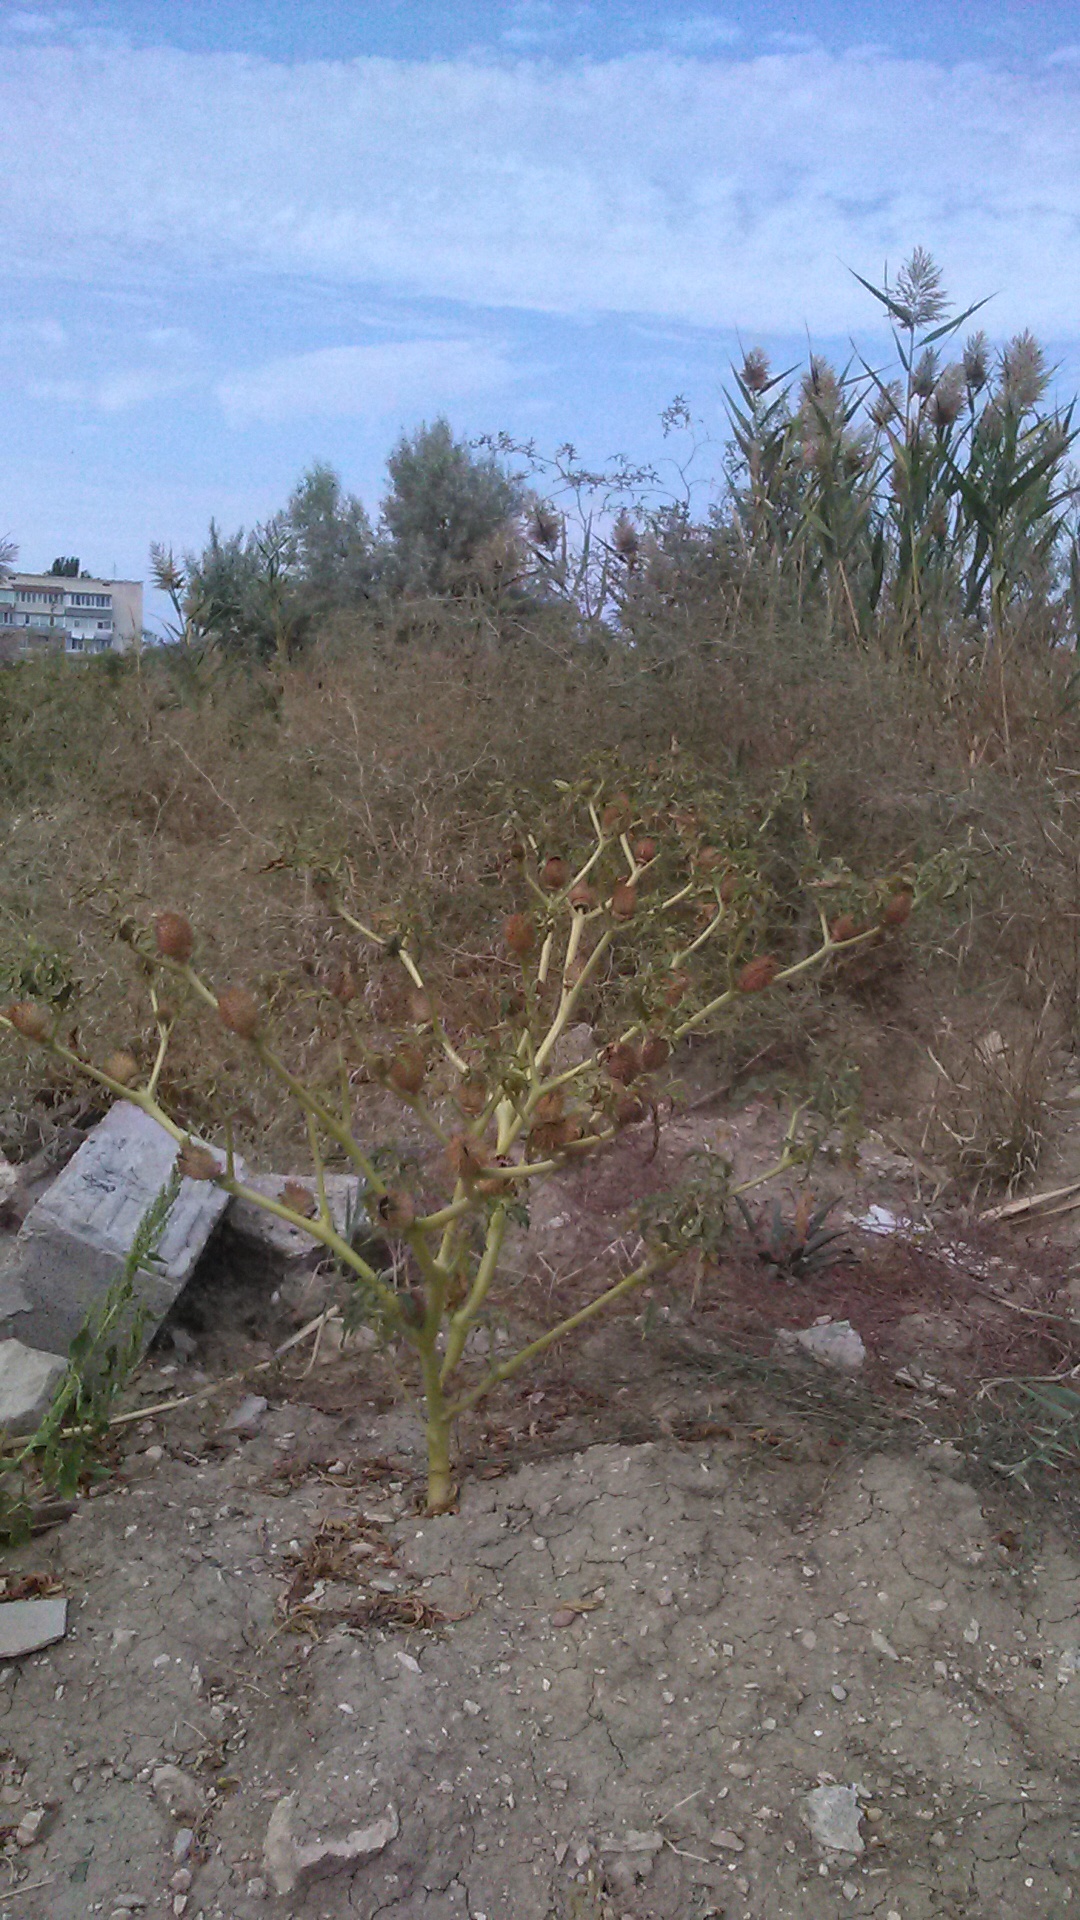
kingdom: Plantae
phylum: Tracheophyta
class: Magnoliopsida
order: Solanales
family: Solanaceae
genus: Datura
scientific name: Datura stramonium
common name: Thorn-apple
